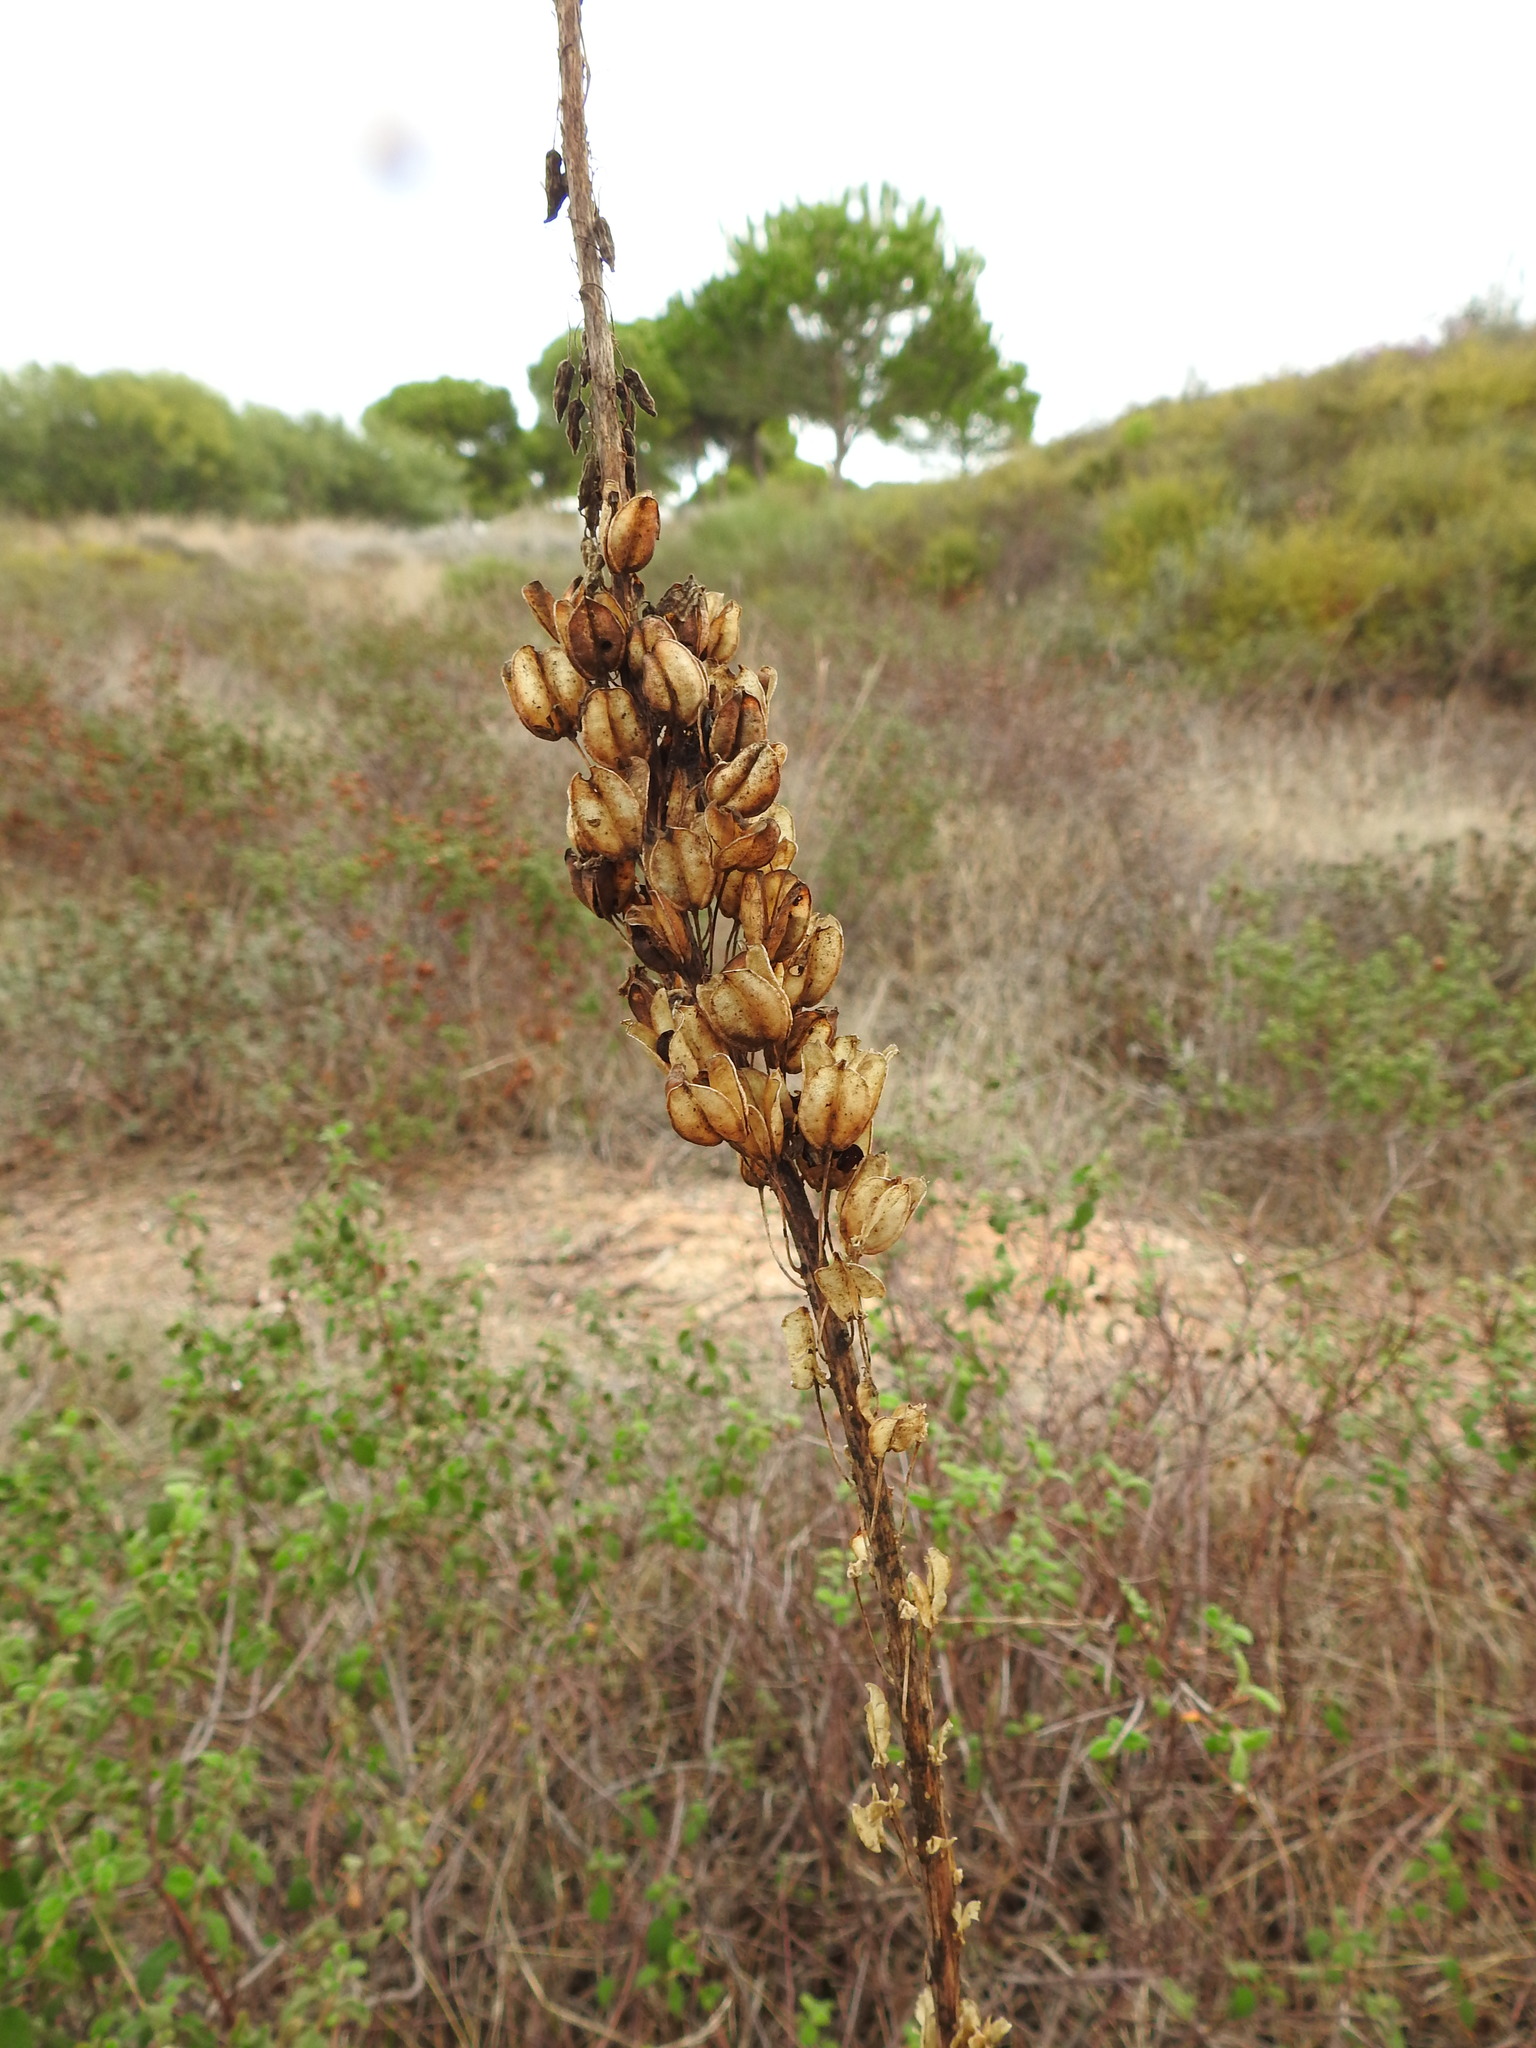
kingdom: Plantae
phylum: Tracheophyta
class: Liliopsida
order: Asparagales
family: Asparagaceae
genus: Drimia
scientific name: Drimia maritima
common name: Maritime squill
